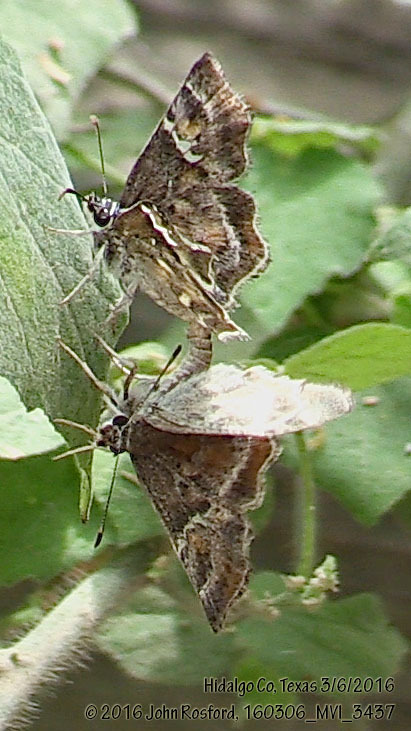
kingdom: Animalia
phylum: Arthropoda
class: Insecta
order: Lepidoptera
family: Hesperiidae
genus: Systasea
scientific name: Systasea pulverulenta
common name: Texas powdered skipper
